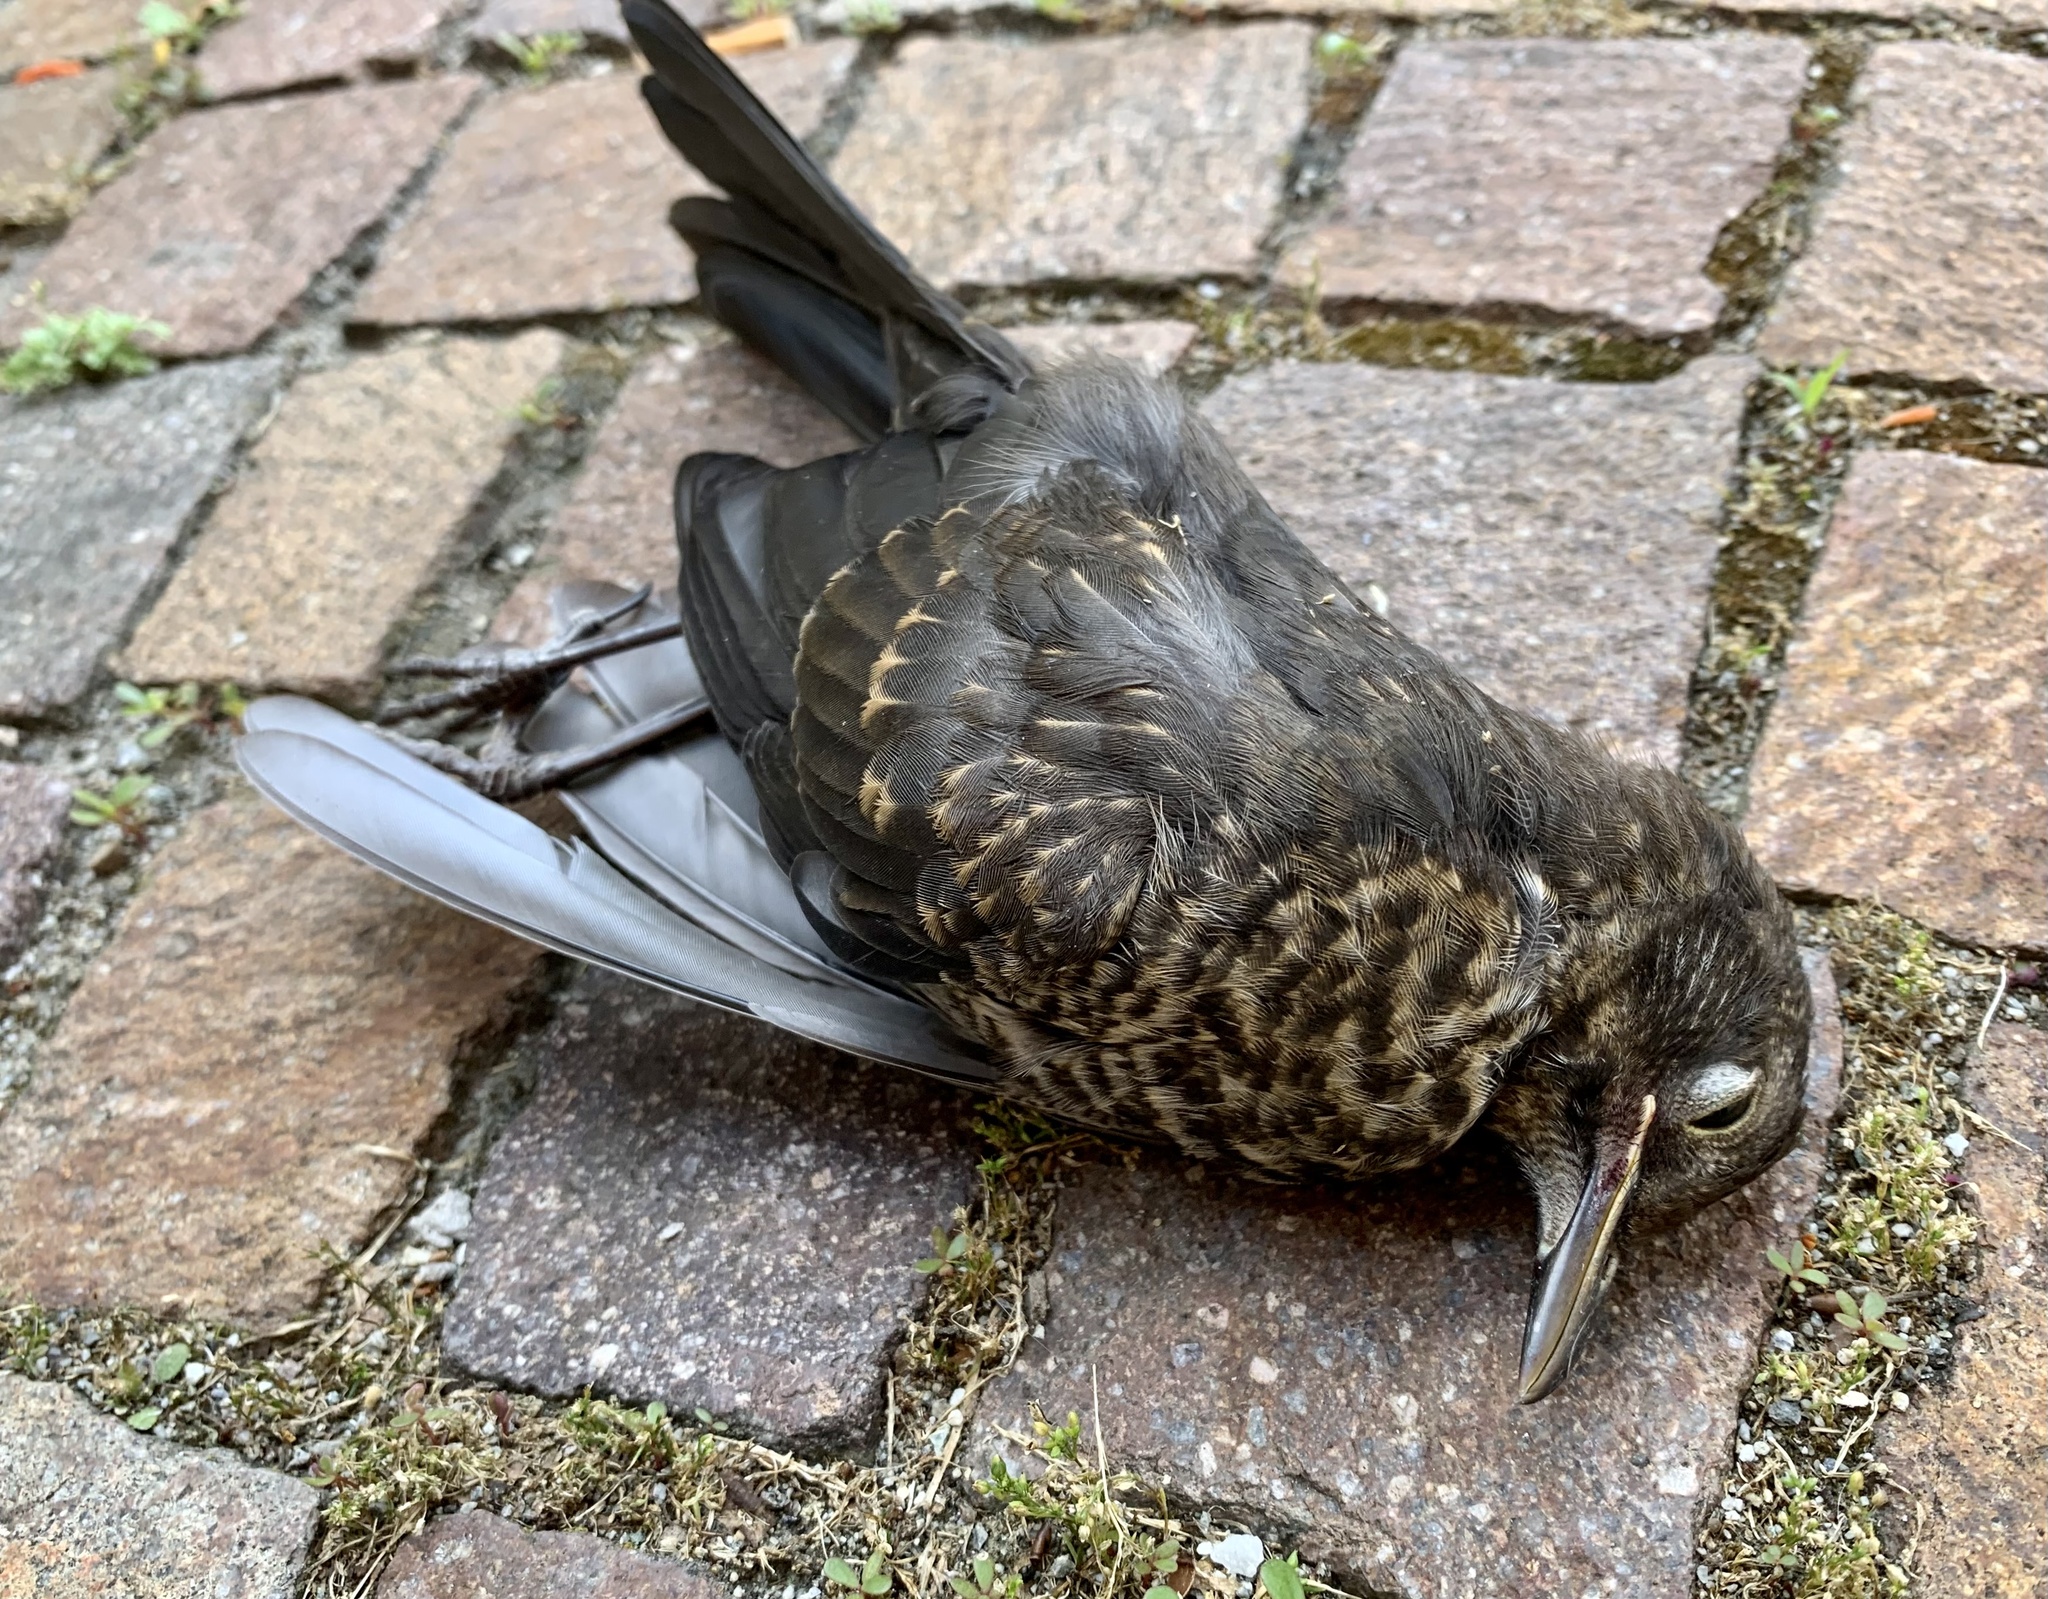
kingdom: Animalia
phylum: Chordata
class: Aves
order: Passeriformes
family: Turdidae
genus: Turdus
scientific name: Turdus merula
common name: Common blackbird
